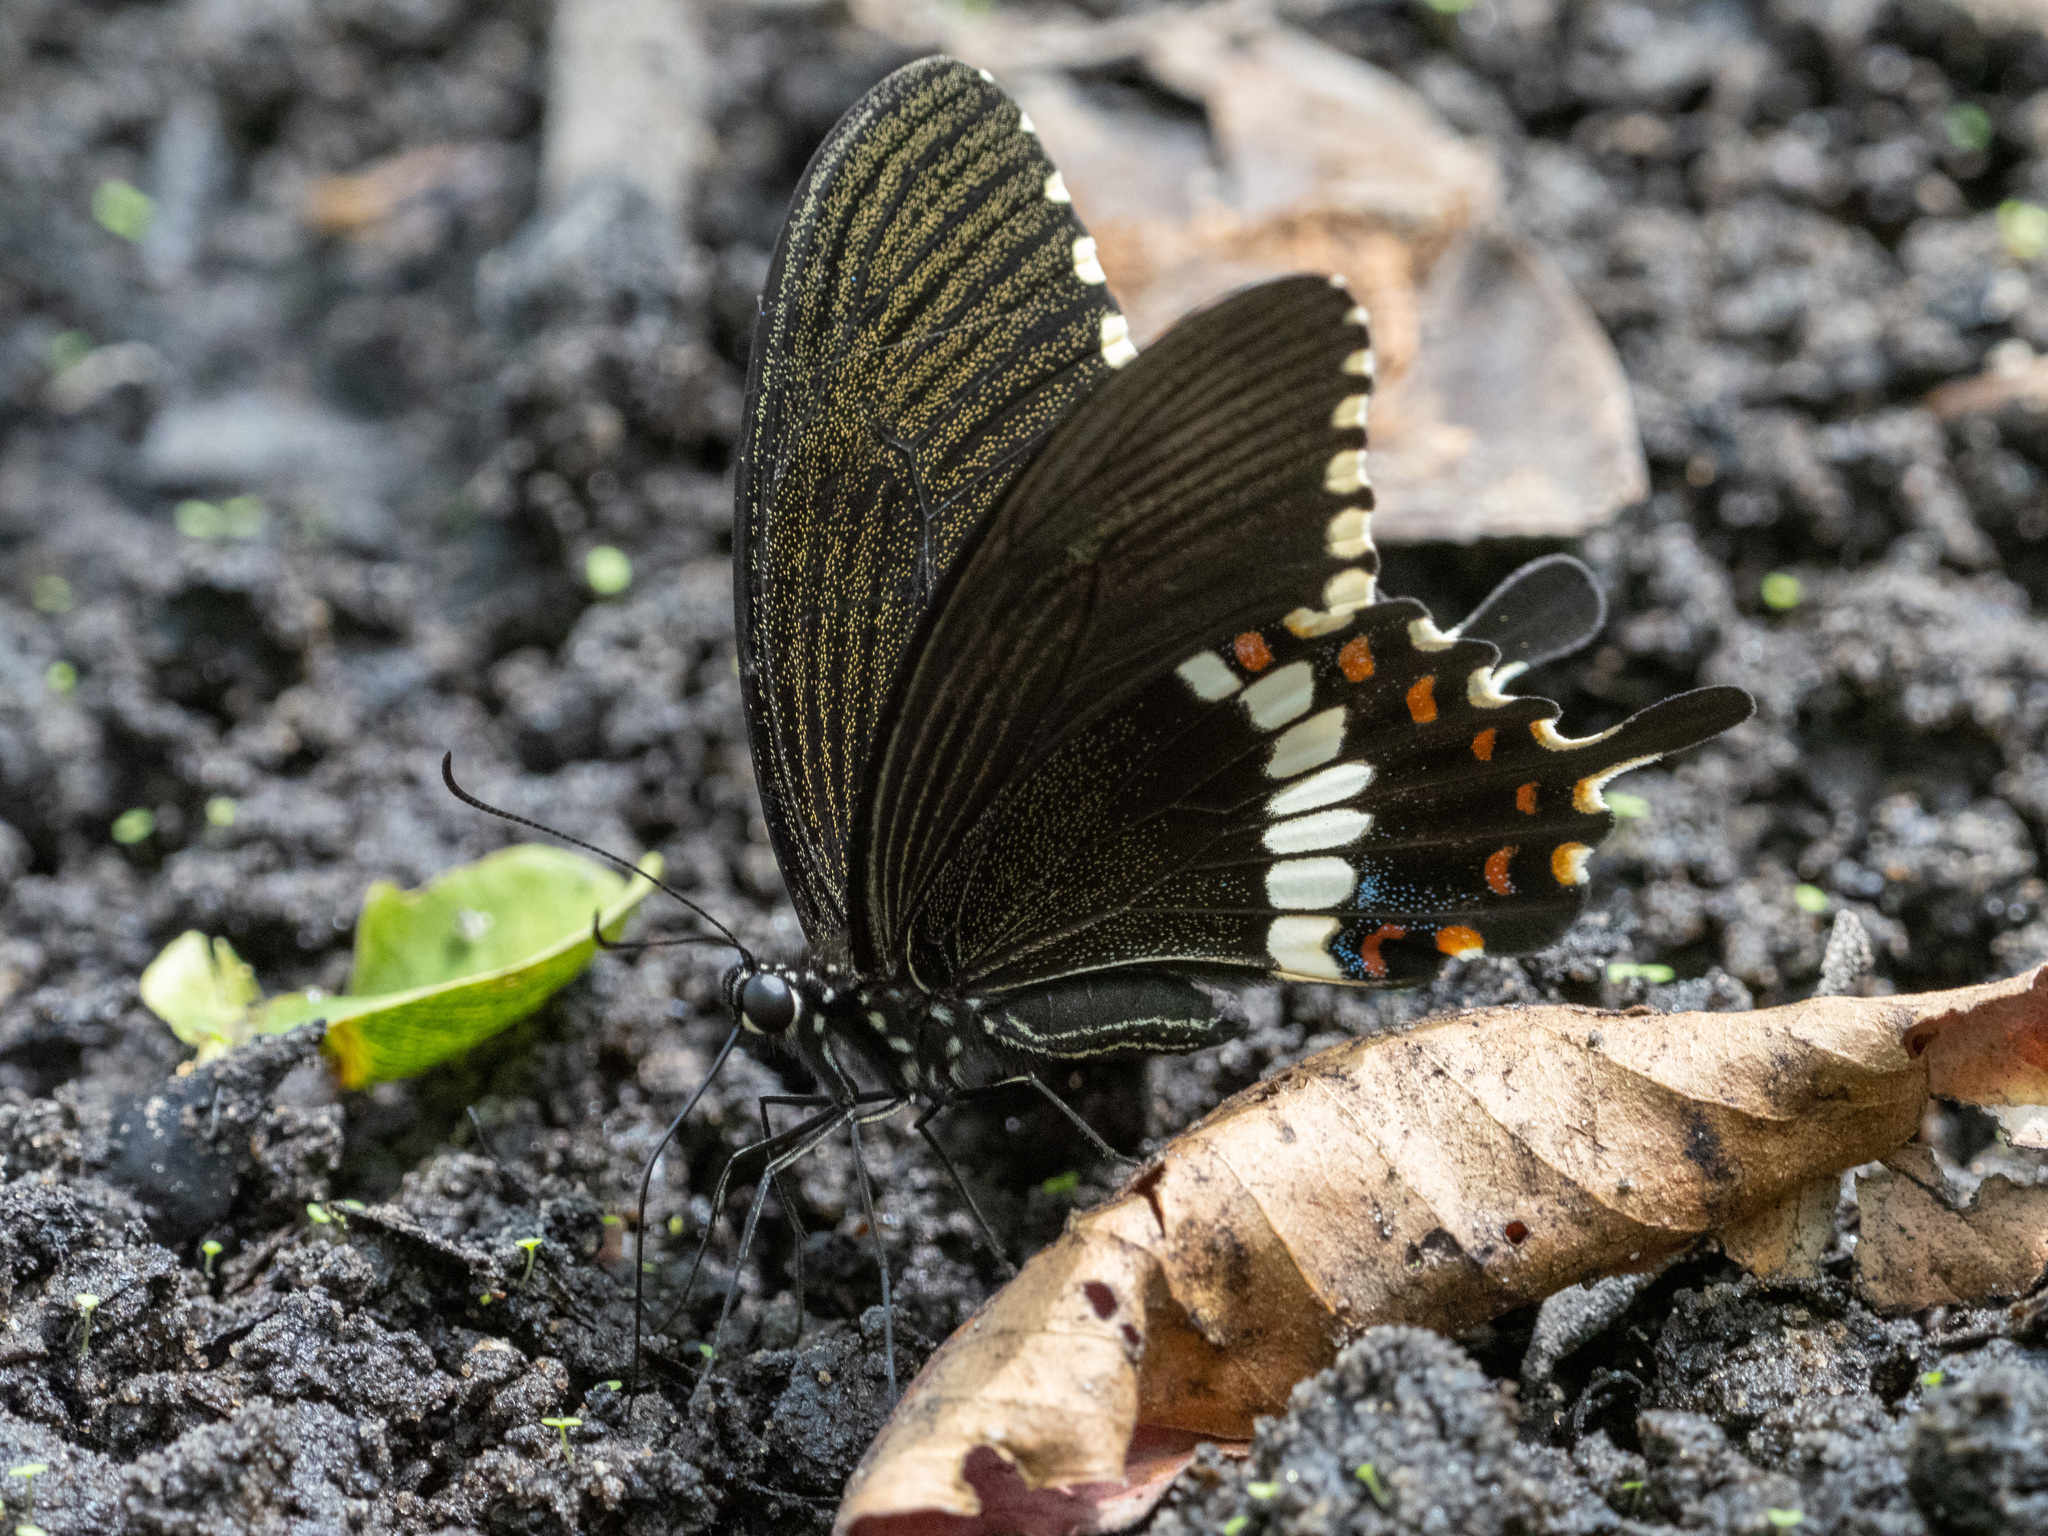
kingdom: Animalia
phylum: Arthropoda
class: Insecta
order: Lepidoptera
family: Papilionidae
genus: Papilio
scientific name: Papilio polytes
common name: Common mormon
